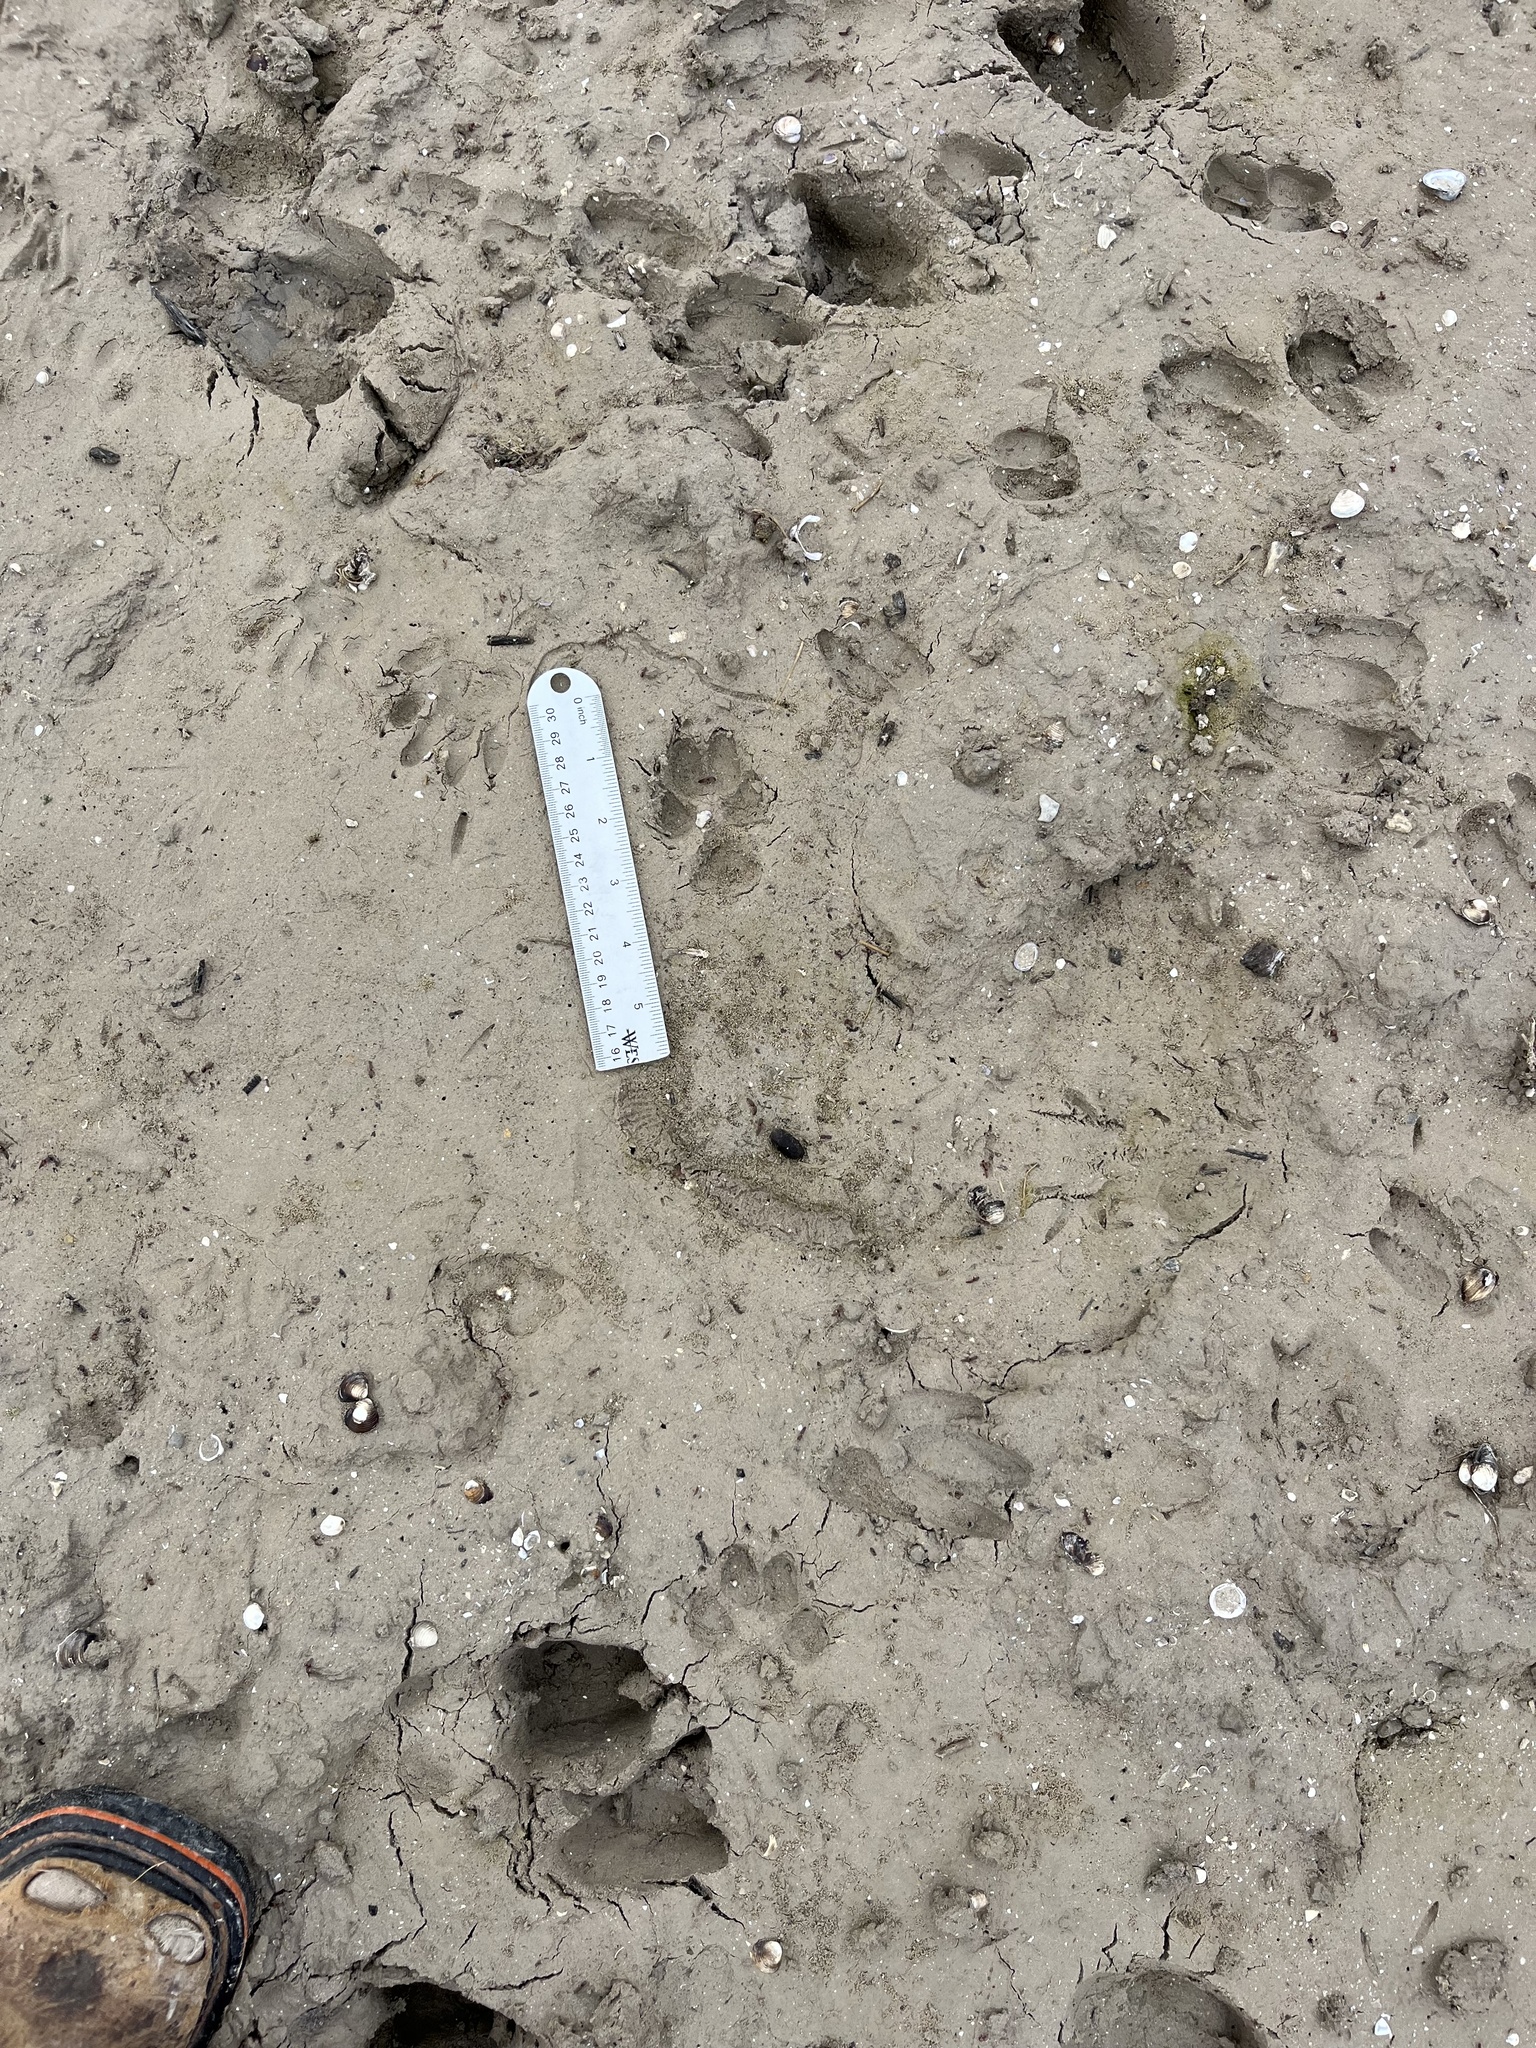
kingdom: Animalia
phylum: Chordata
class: Mammalia
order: Carnivora
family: Canidae
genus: Canis
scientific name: Canis latrans
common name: Coyote
